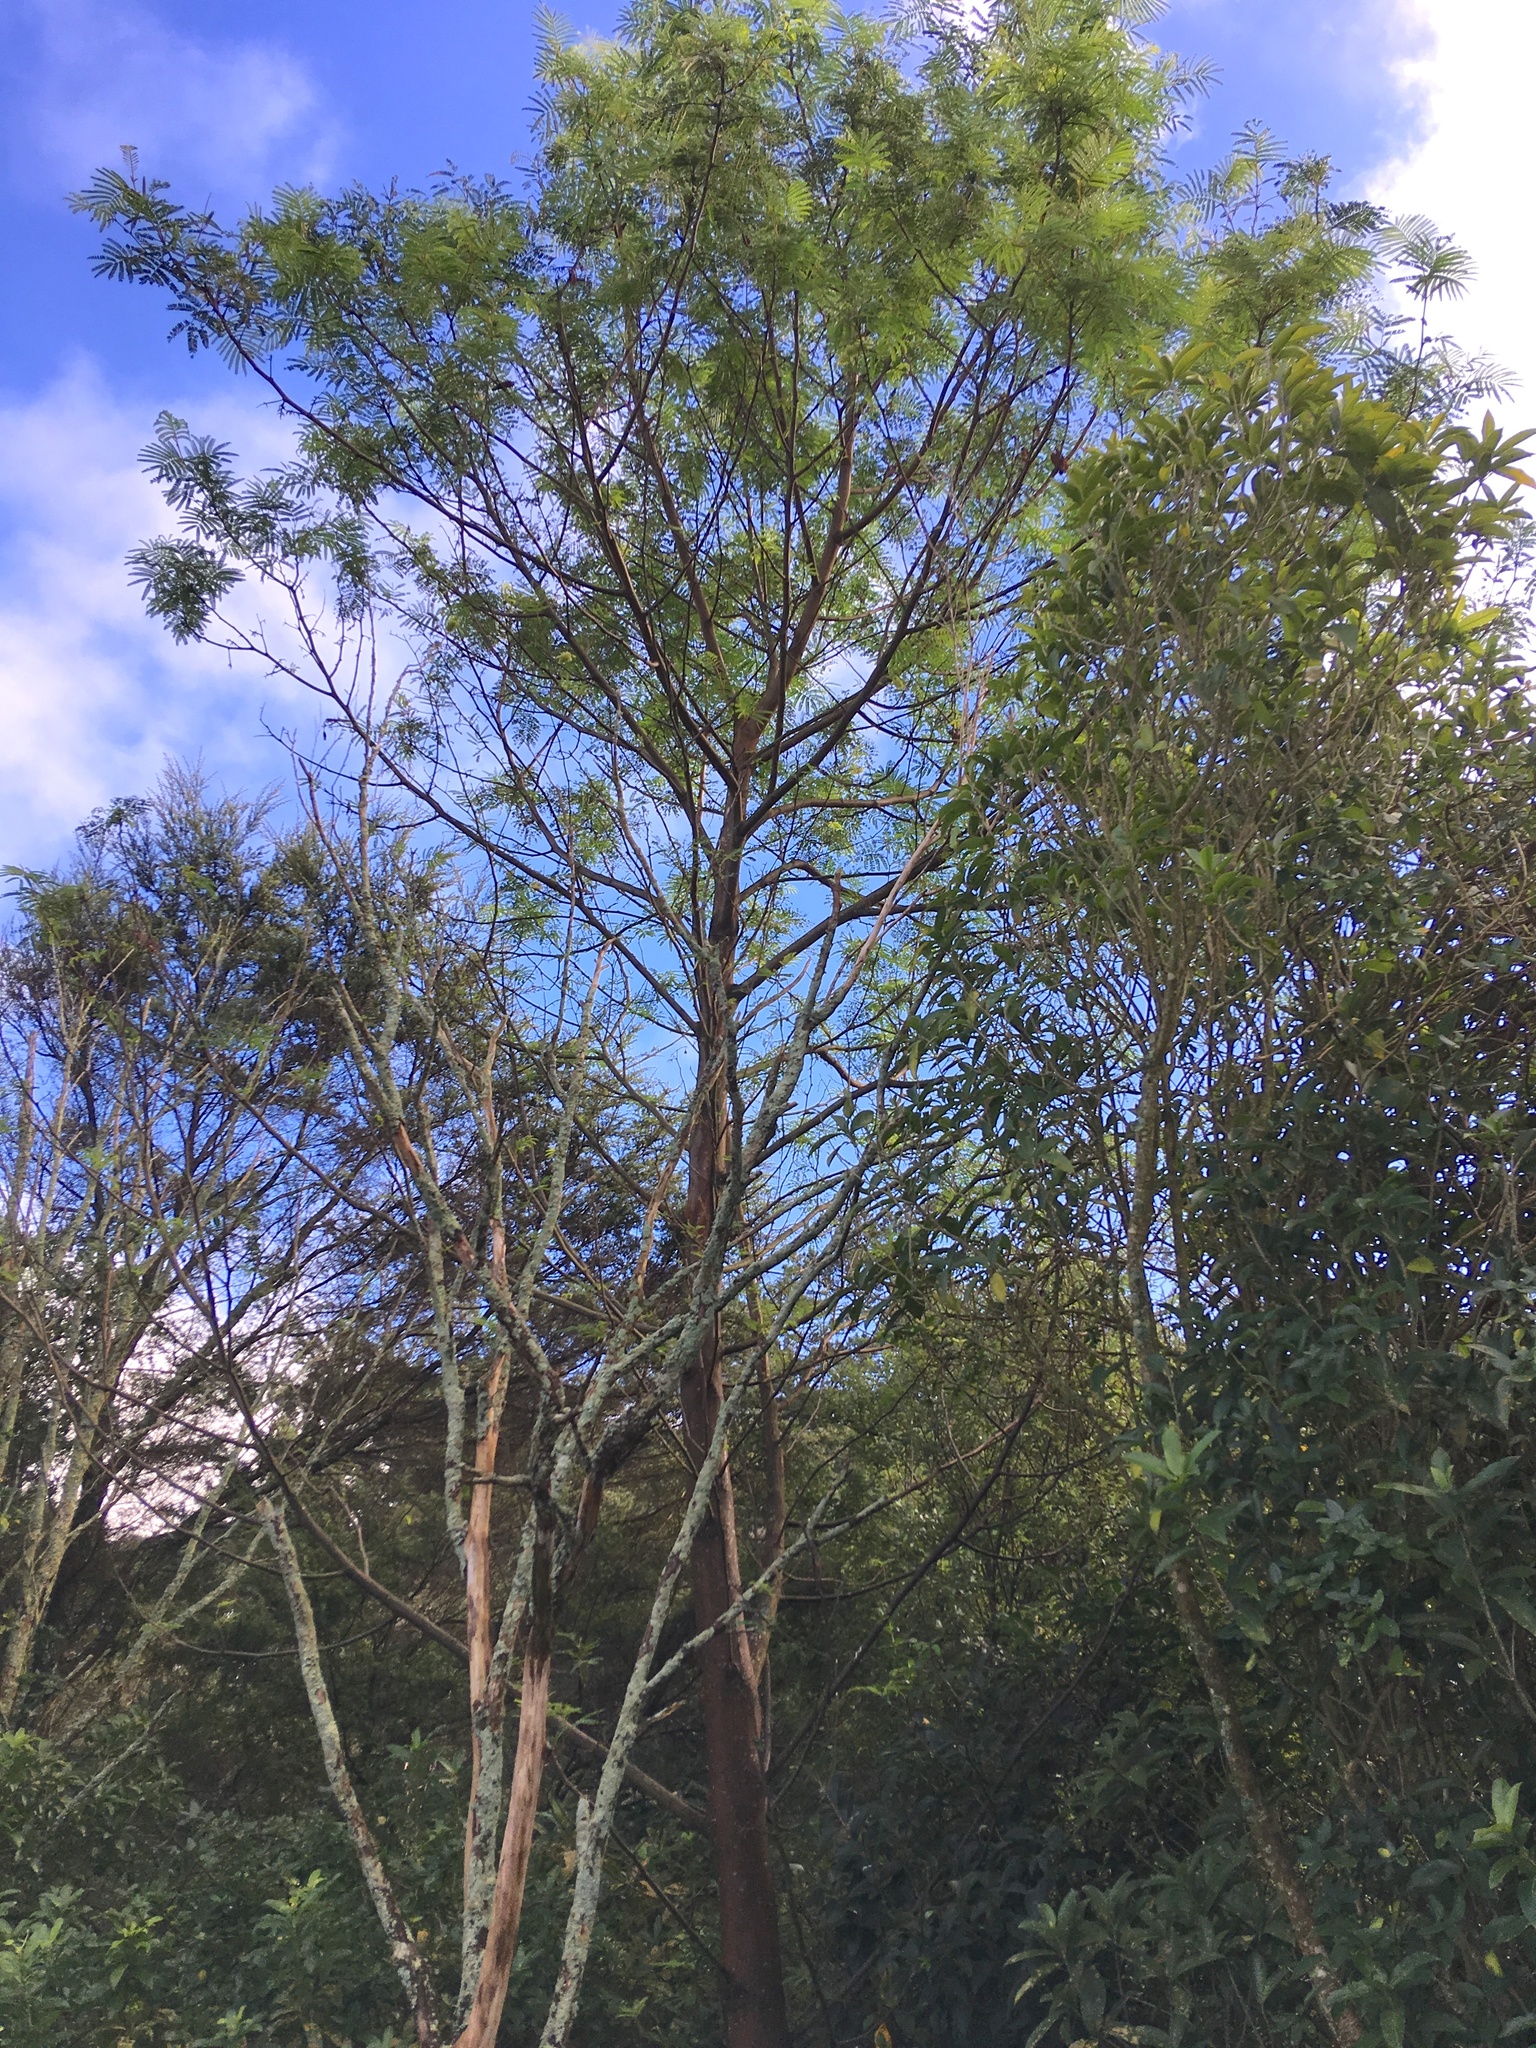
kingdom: Plantae
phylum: Tracheophyta
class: Magnoliopsida
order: Fabales
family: Fabaceae
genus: Paraserianthes
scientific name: Paraserianthes lophantha
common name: Plume albizia
